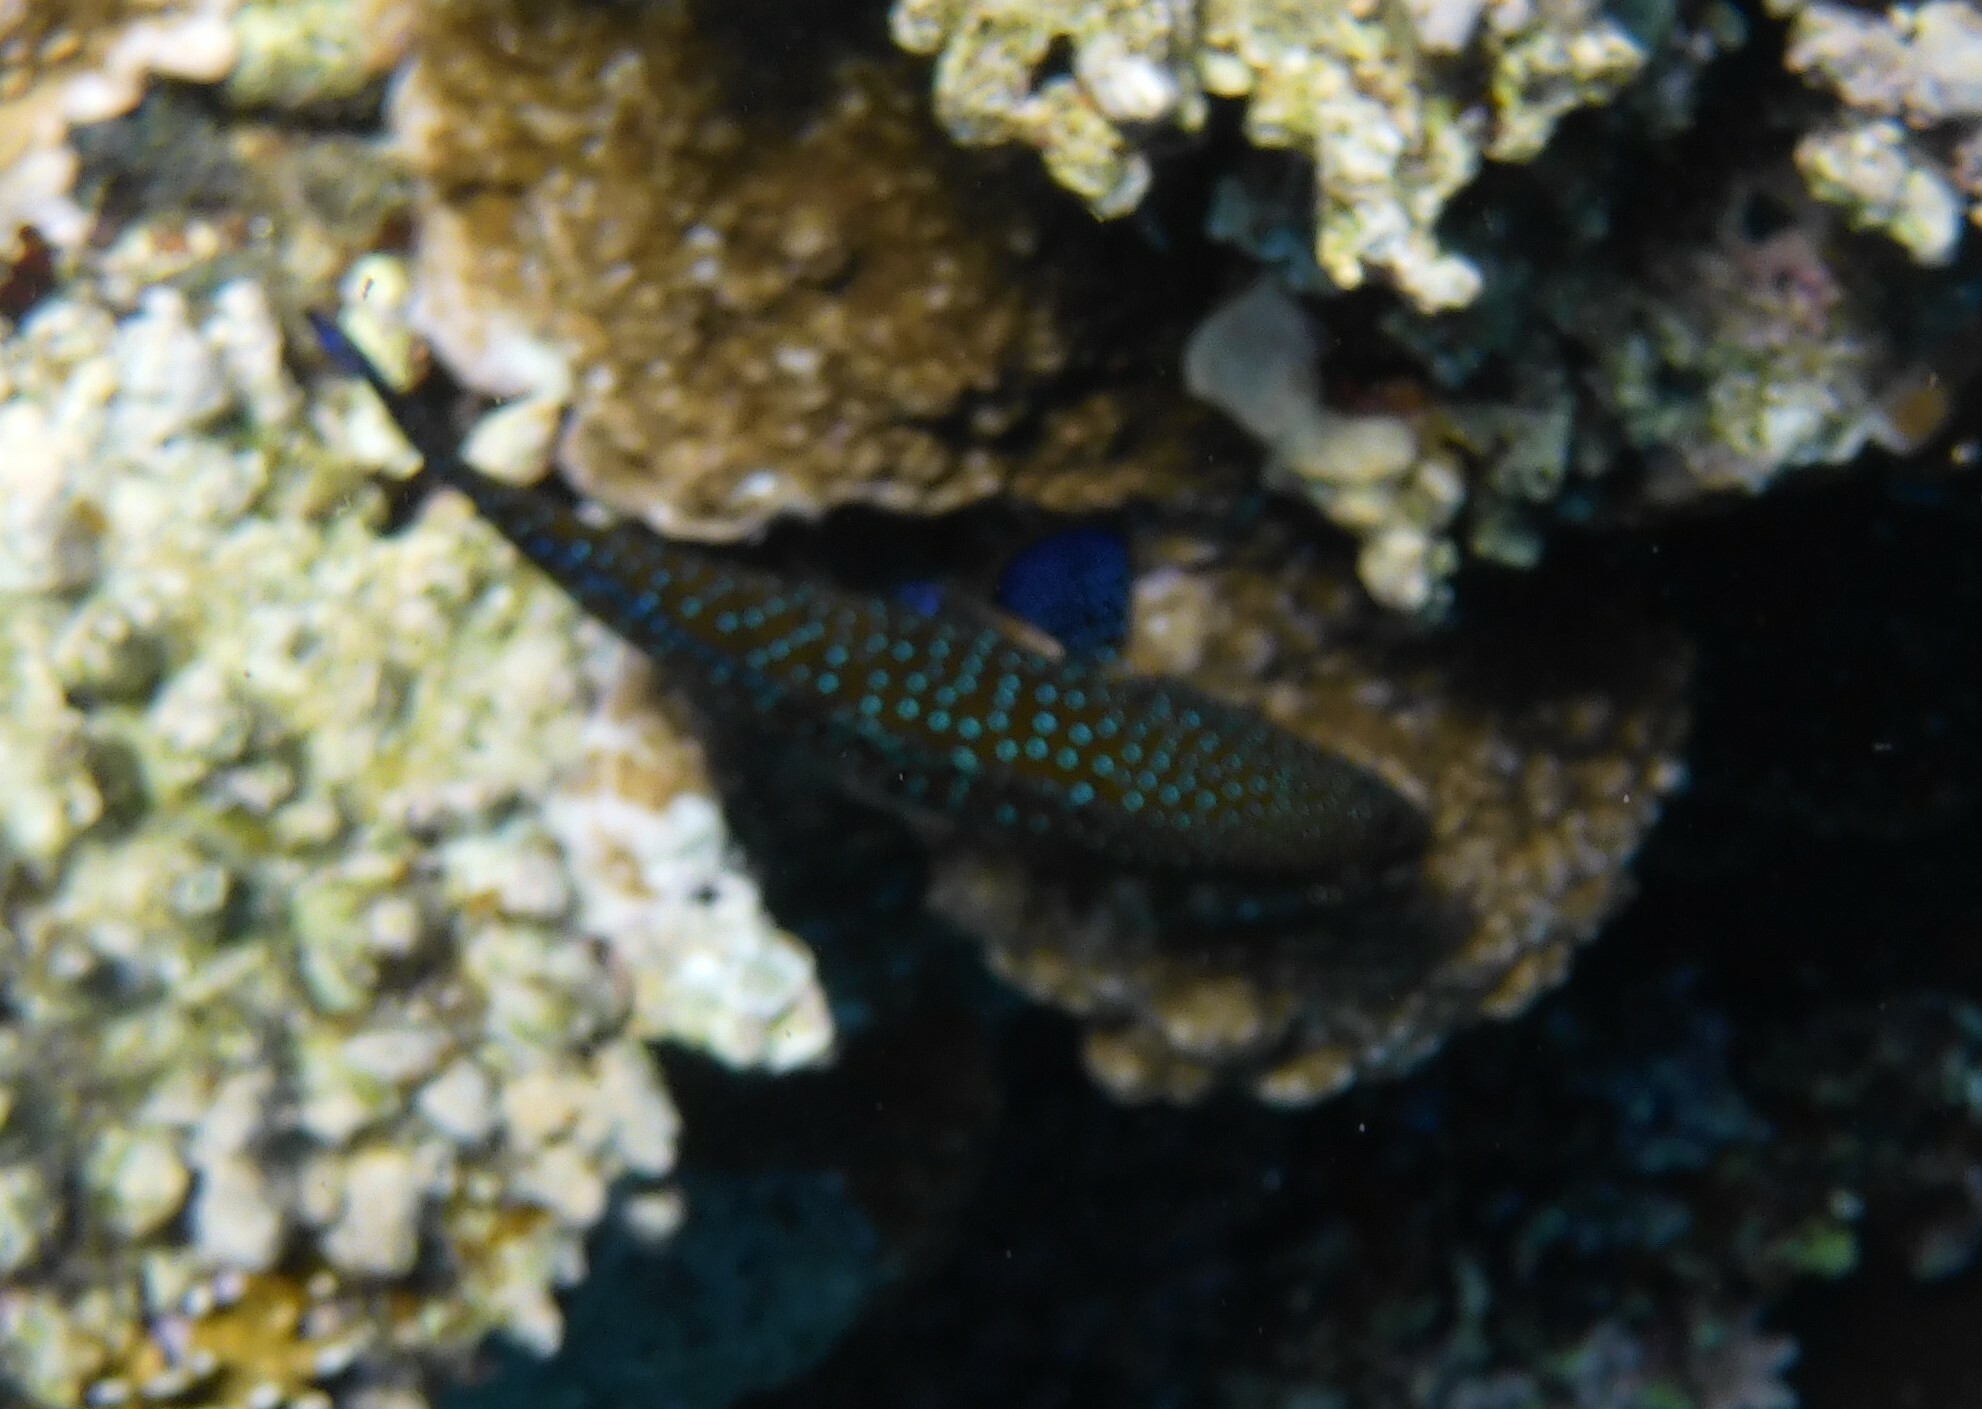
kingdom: Animalia
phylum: Chordata
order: Perciformes
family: Serranidae
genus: Cephalopholis
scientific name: Cephalopholis argus
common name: Peacock grouper
